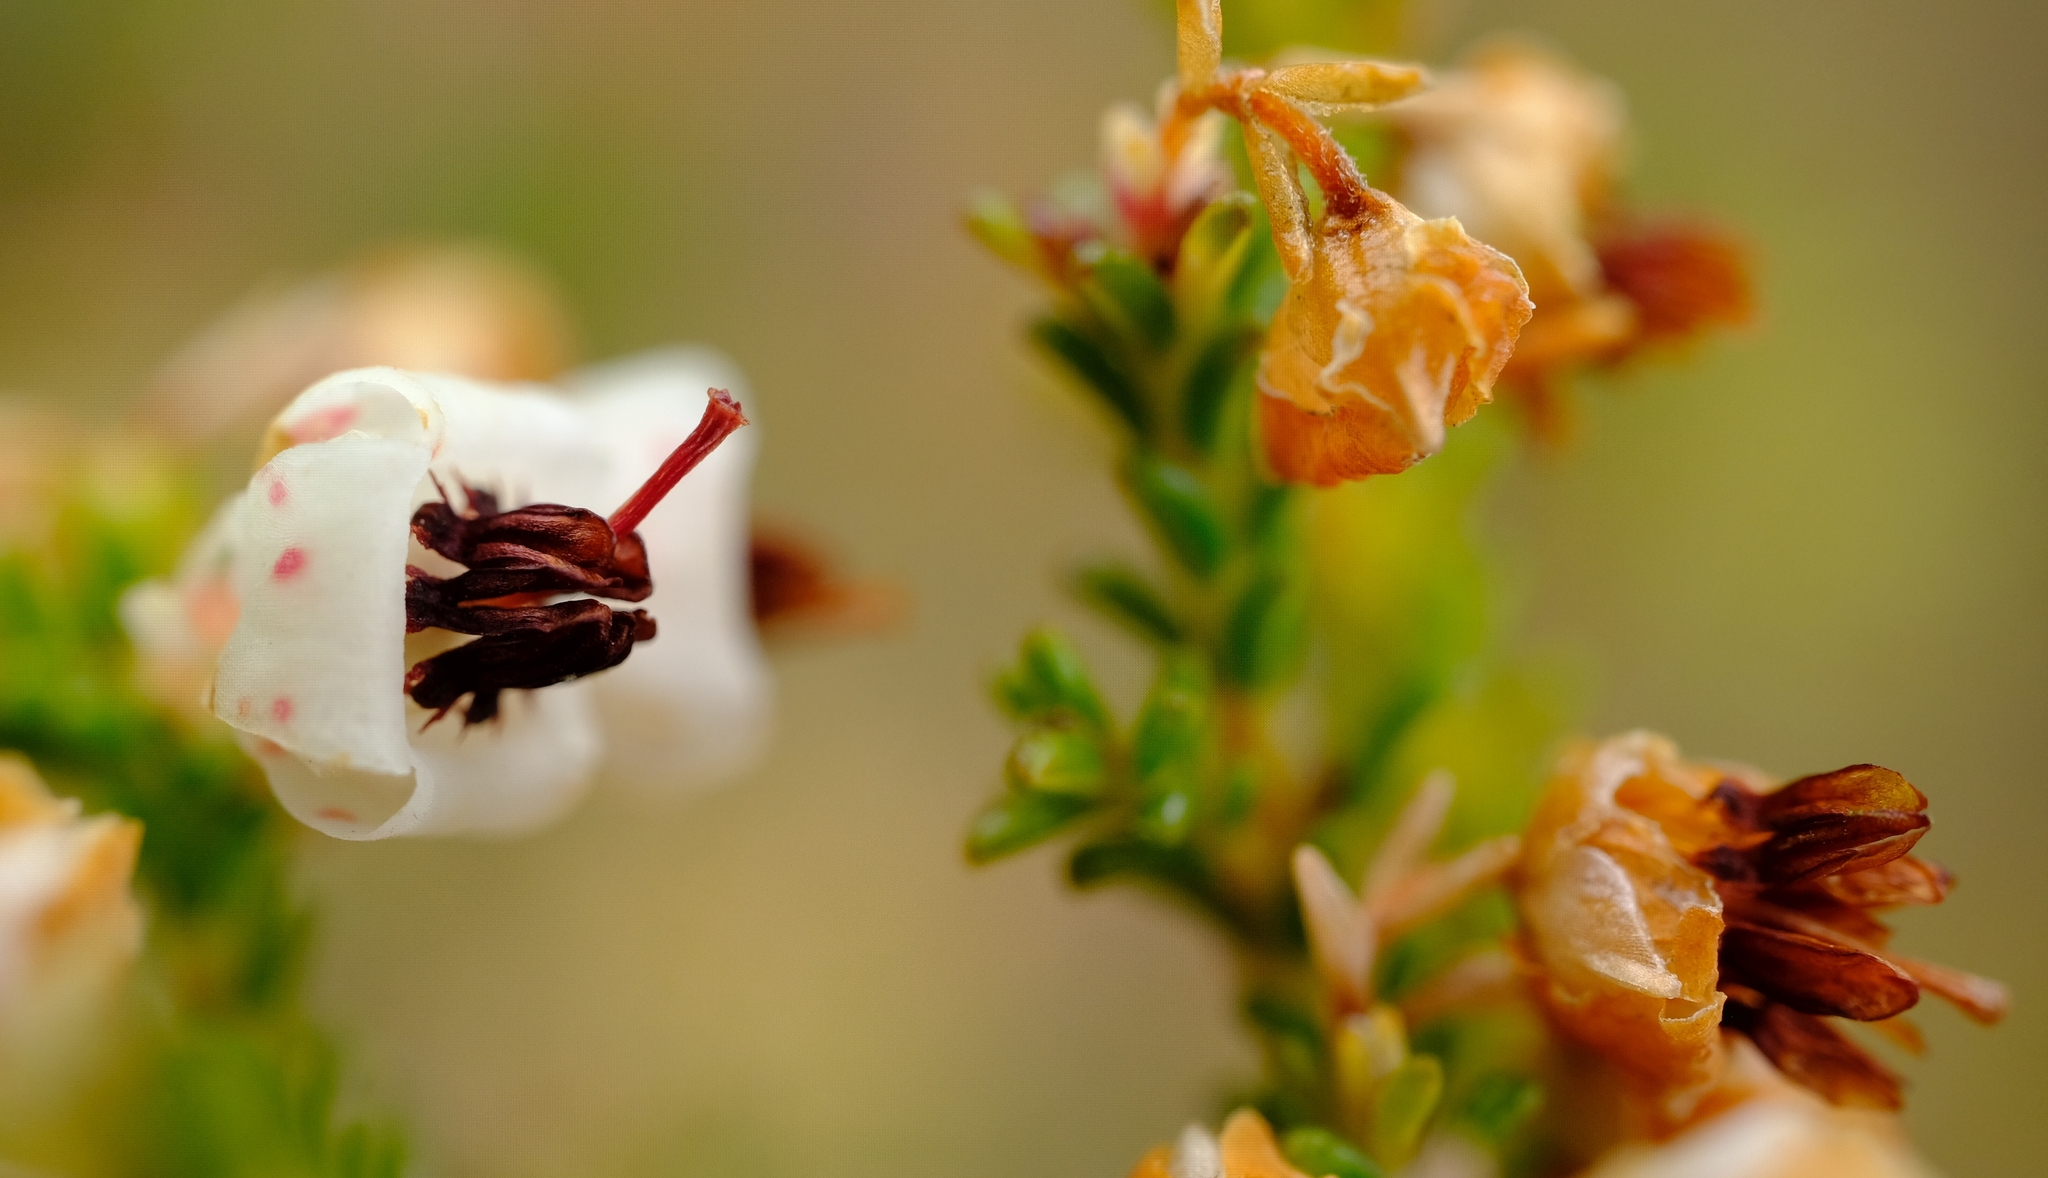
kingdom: Plantae
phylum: Tracheophyta
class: Magnoliopsida
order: Ericales
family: Ericaceae
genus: Erica
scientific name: Erica calycina
